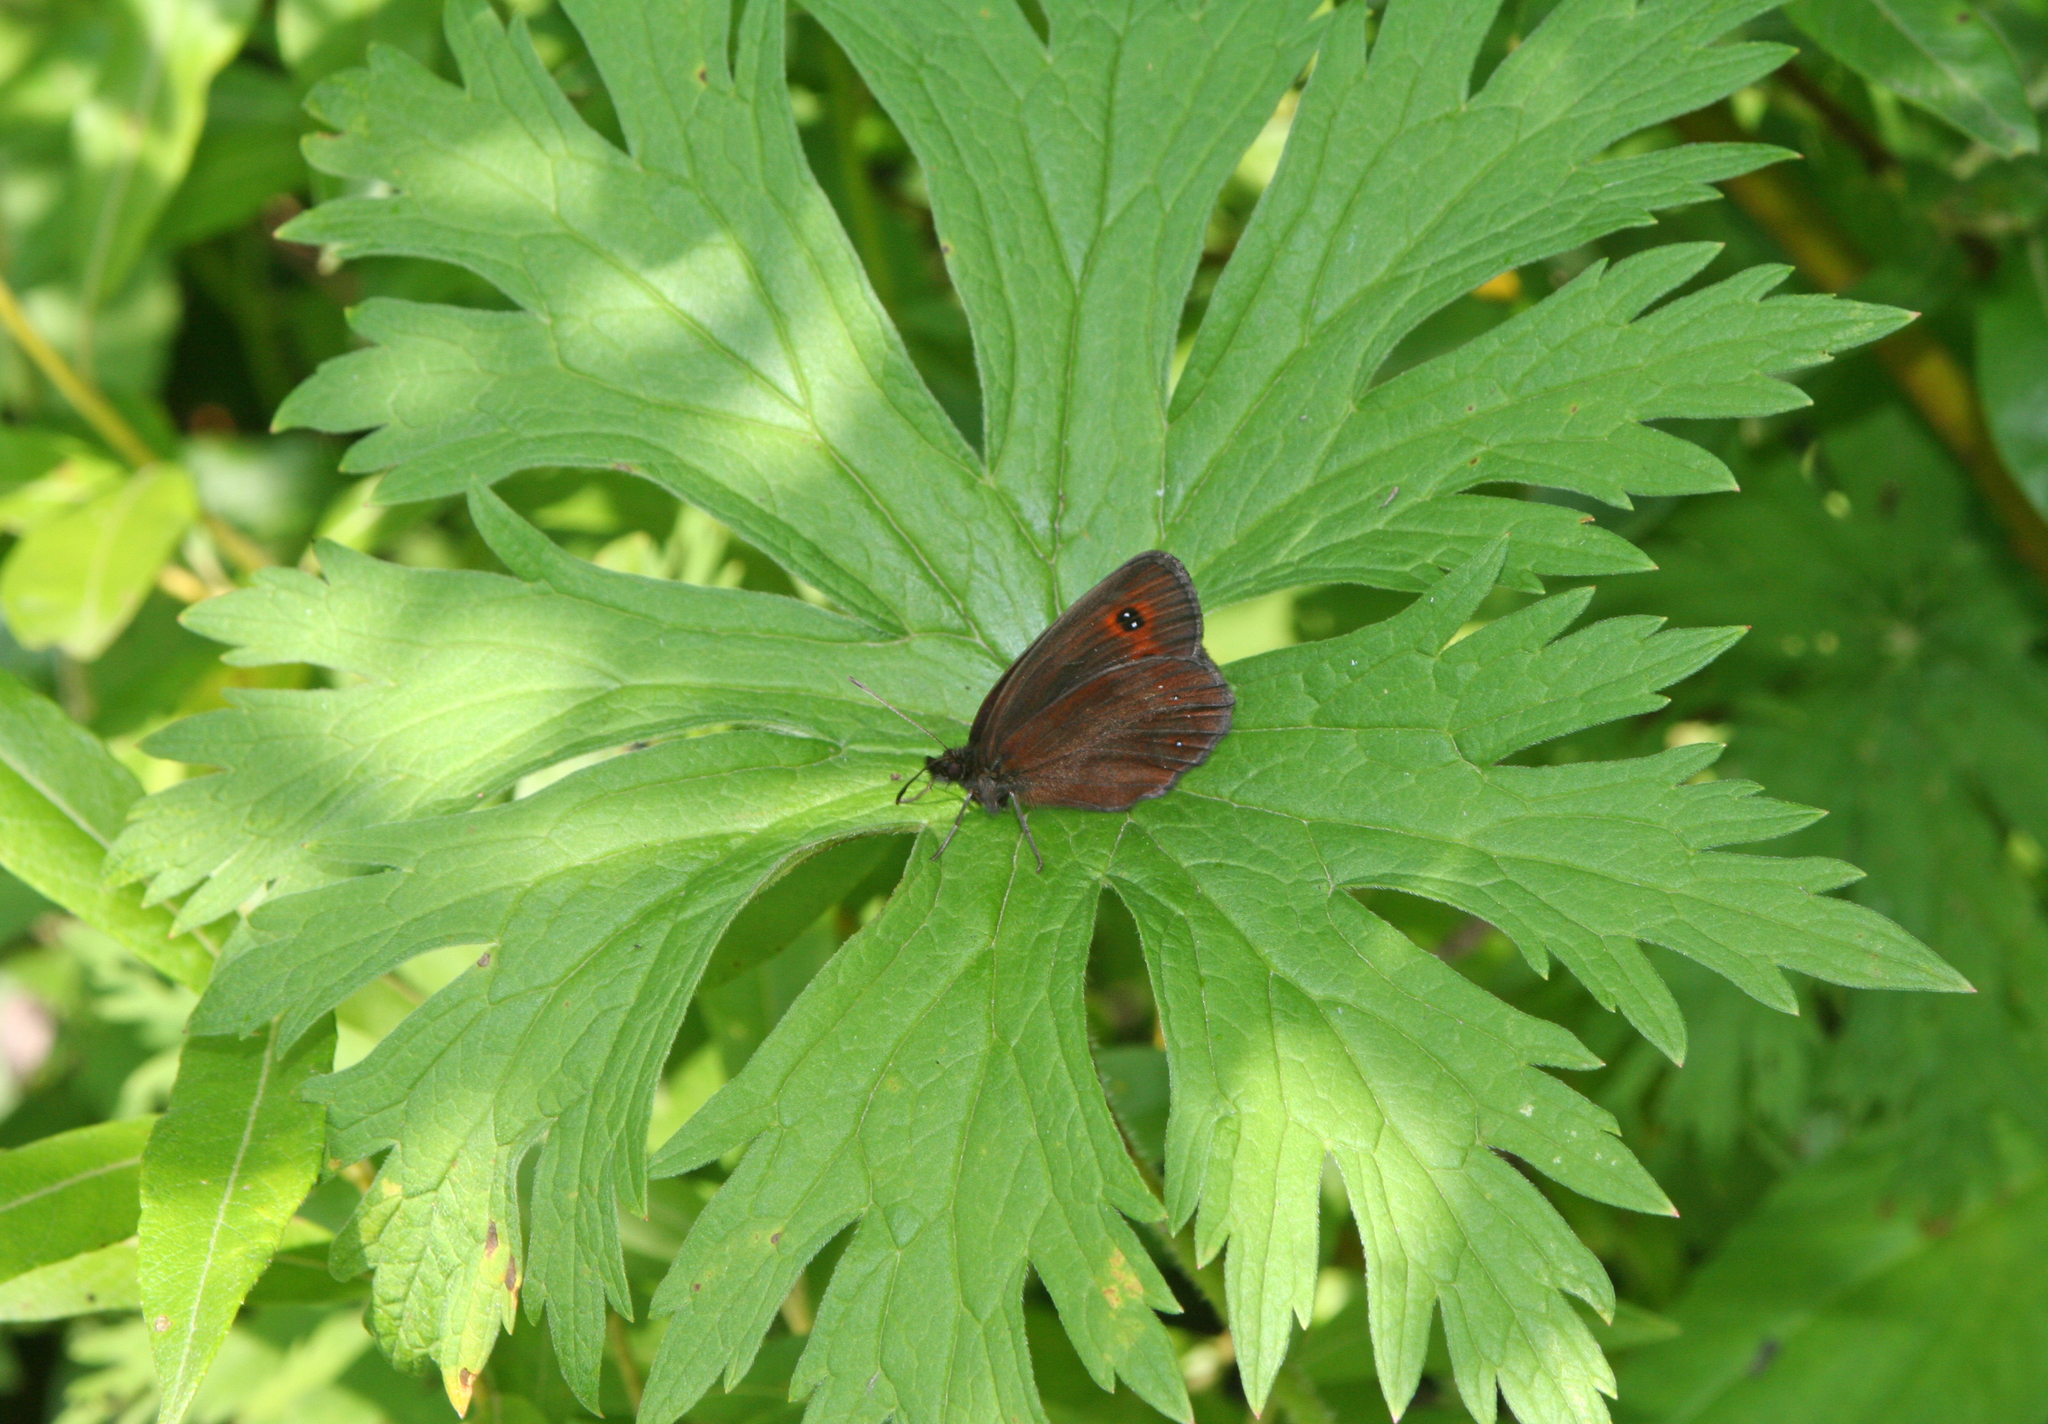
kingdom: Plantae
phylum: Tracheophyta
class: Magnoliopsida
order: Ranunculales
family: Ranunculaceae
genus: Aconitum
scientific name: Aconitum septentrionale
